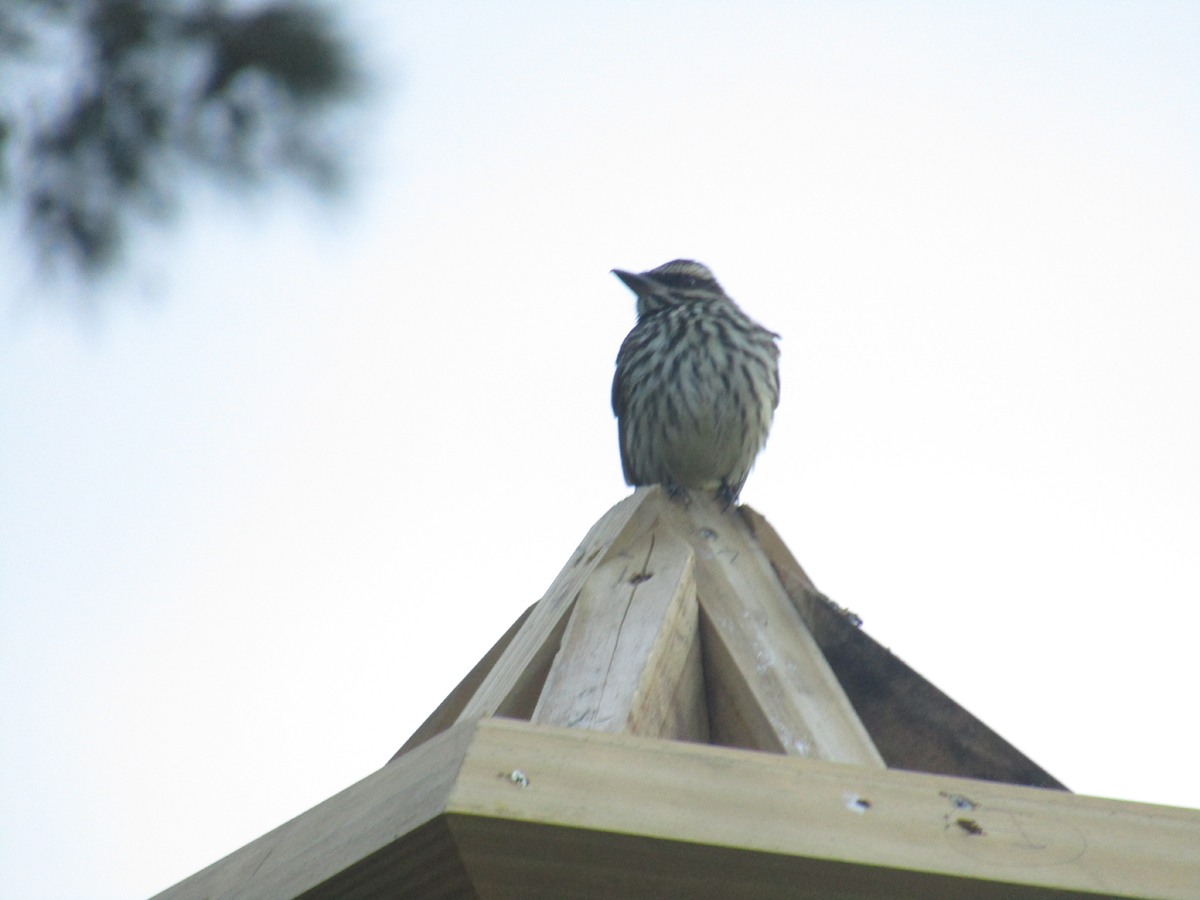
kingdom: Animalia
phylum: Chordata
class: Aves
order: Passeriformes
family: Tyrannidae
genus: Myiodynastes
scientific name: Myiodynastes maculatus
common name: Streaked flycatcher
